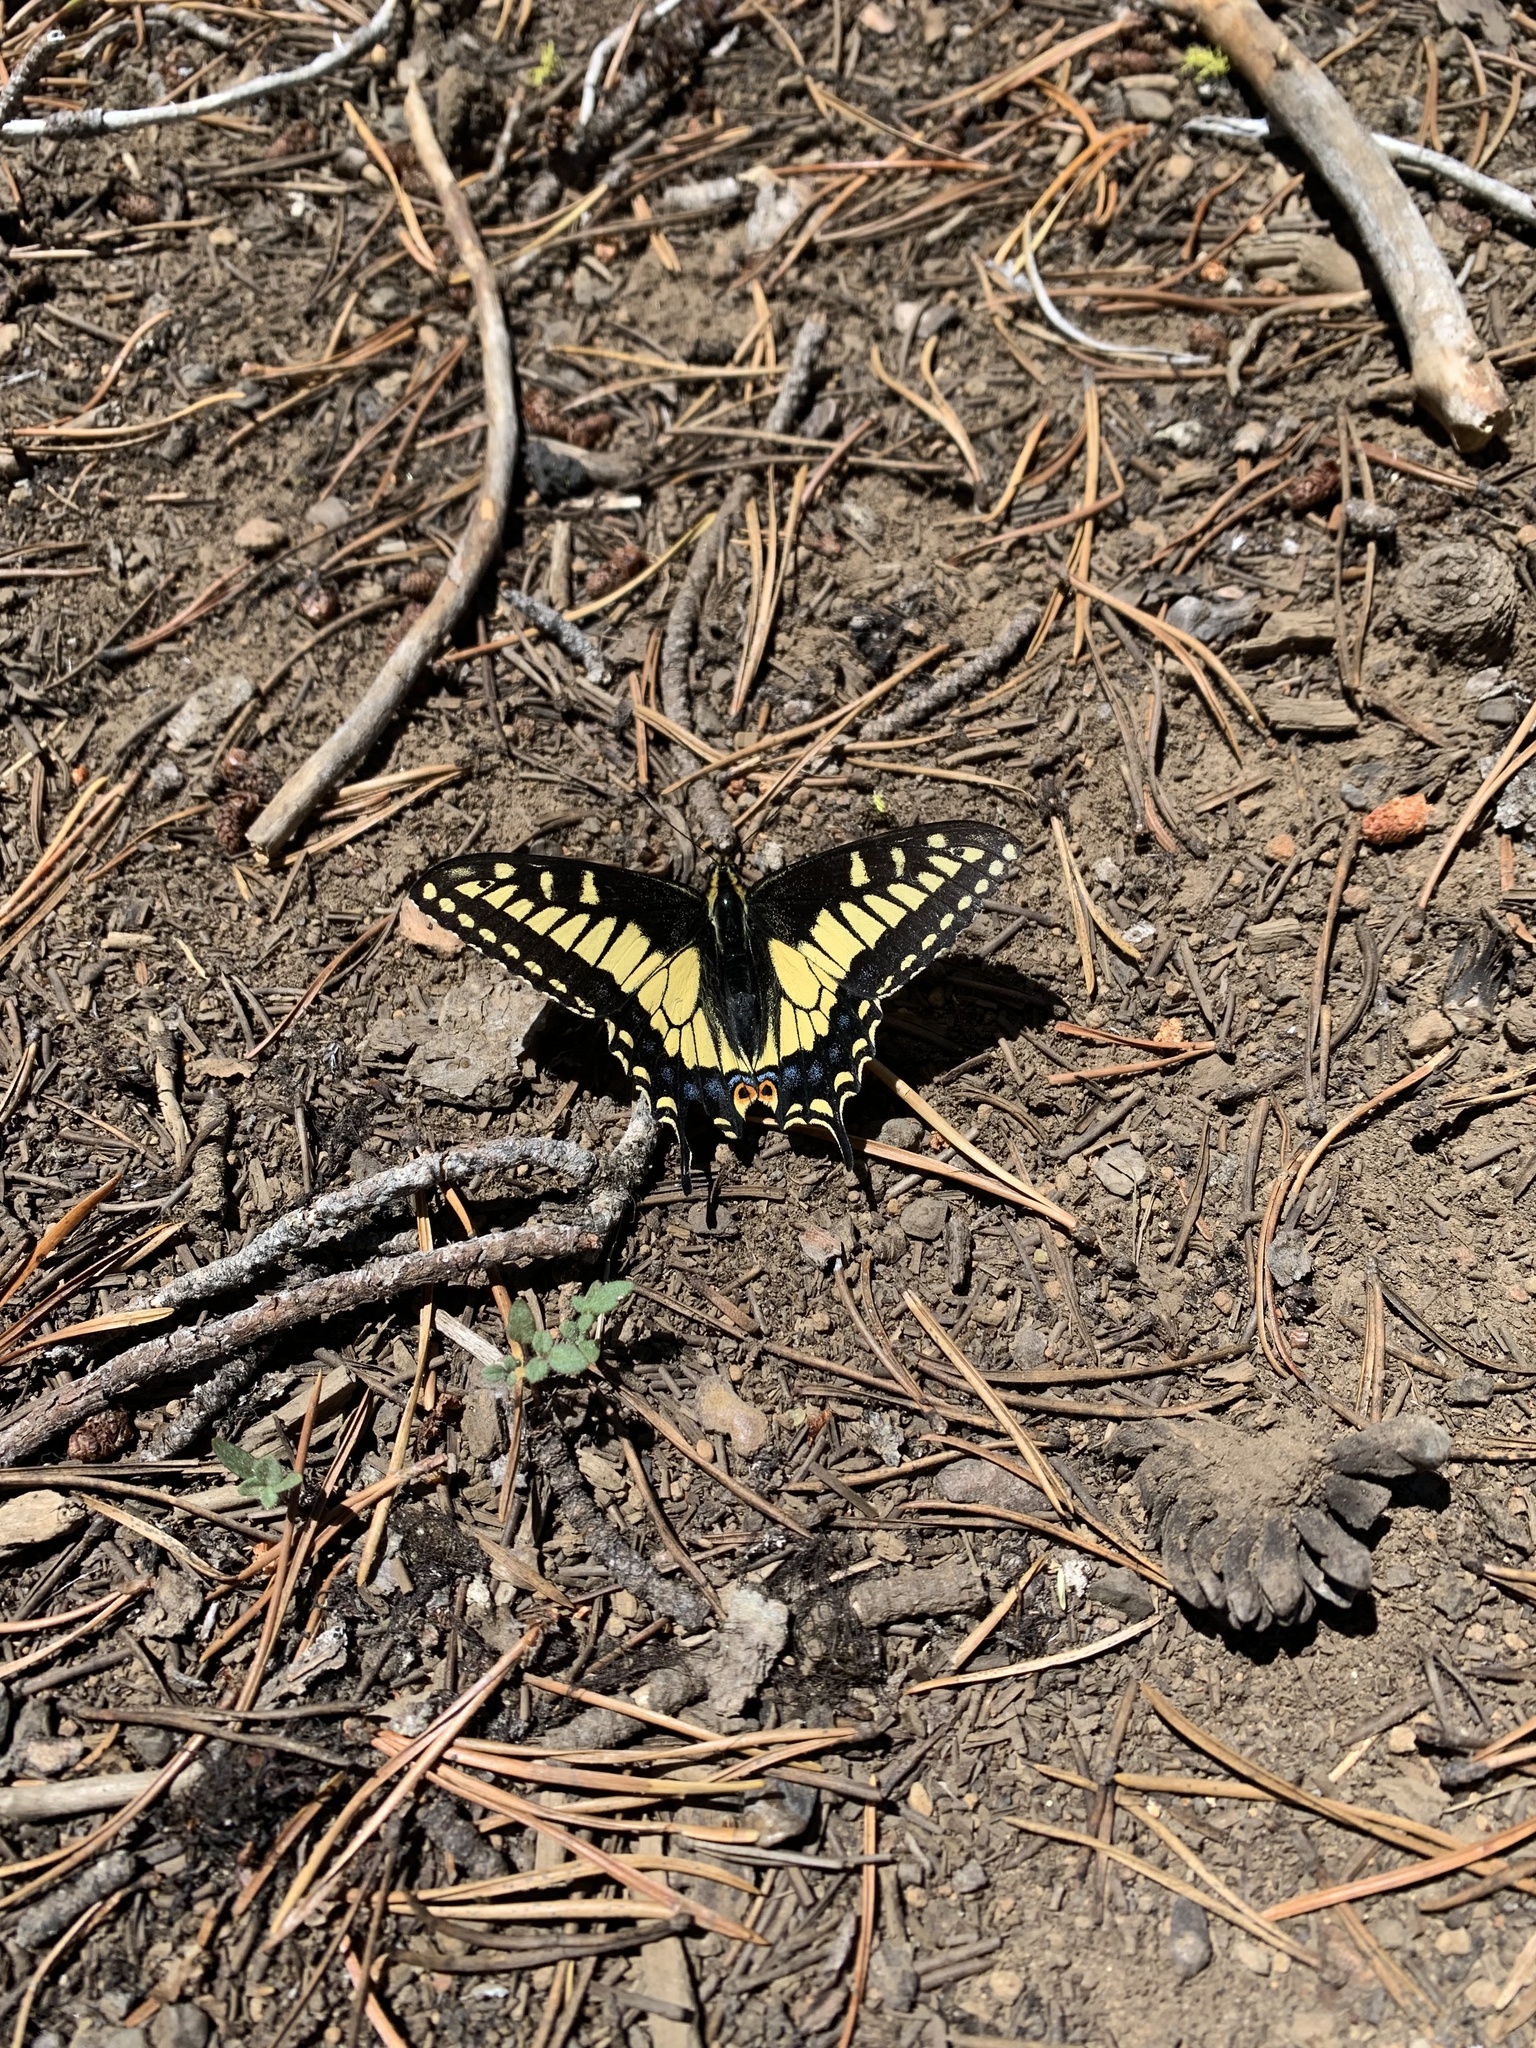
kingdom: Animalia
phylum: Arthropoda
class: Insecta
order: Lepidoptera
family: Papilionidae
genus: Papilio
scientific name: Papilio zelicaon
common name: Anise swallowtail
